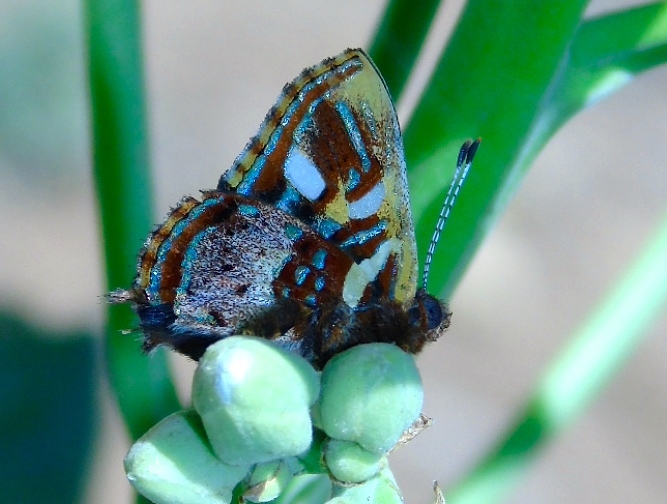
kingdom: Animalia
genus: Anteros
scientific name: Anteros carausius
